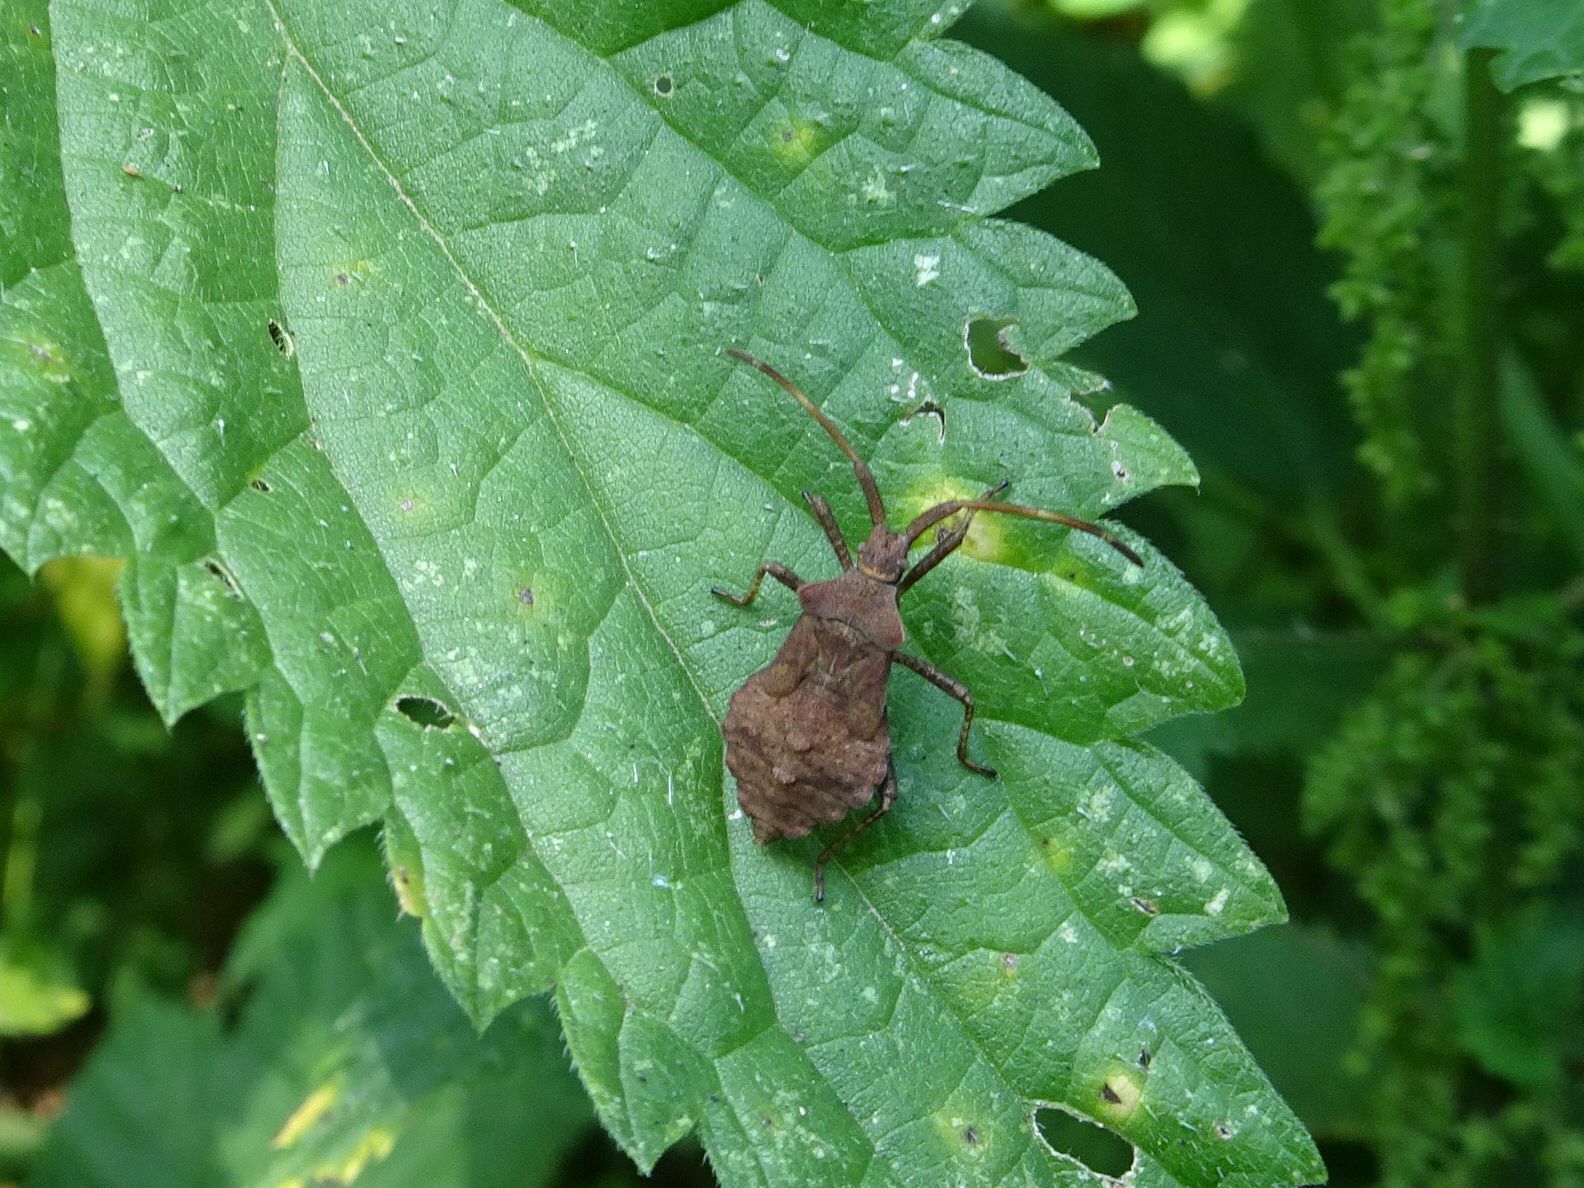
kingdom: Animalia
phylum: Arthropoda
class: Insecta
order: Hemiptera
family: Coreidae
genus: Coreus
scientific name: Coreus marginatus
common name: Dock bug
